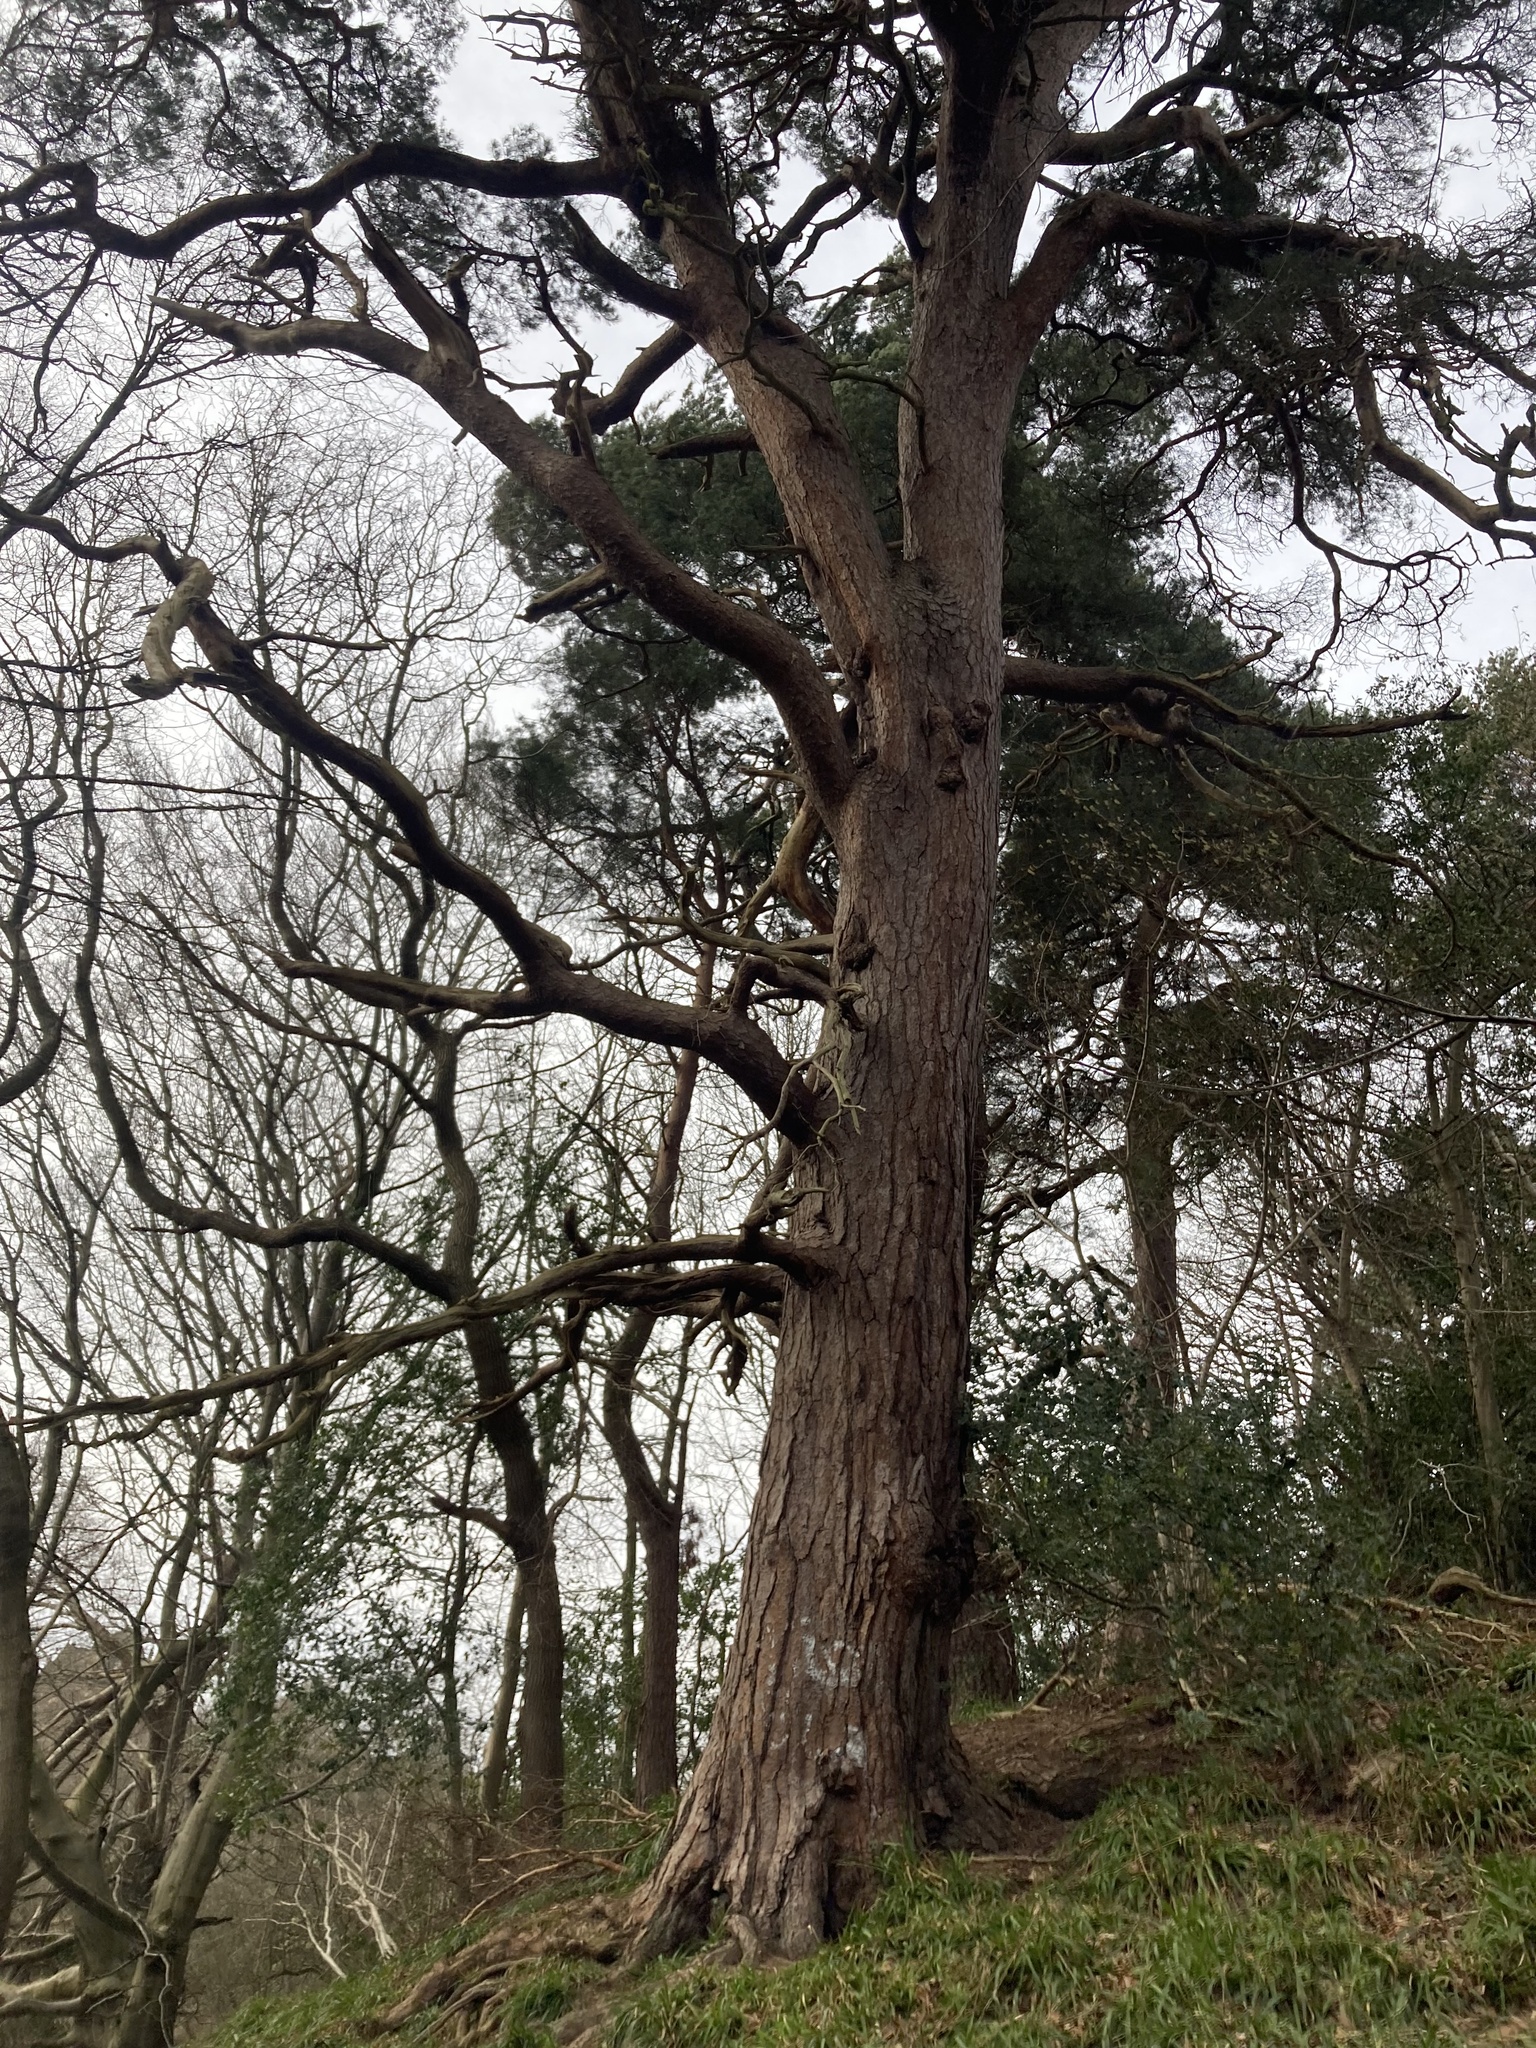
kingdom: Plantae
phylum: Tracheophyta
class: Pinopsida
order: Pinales
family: Pinaceae
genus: Pinus
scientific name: Pinus sylvestris
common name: Scots pine
